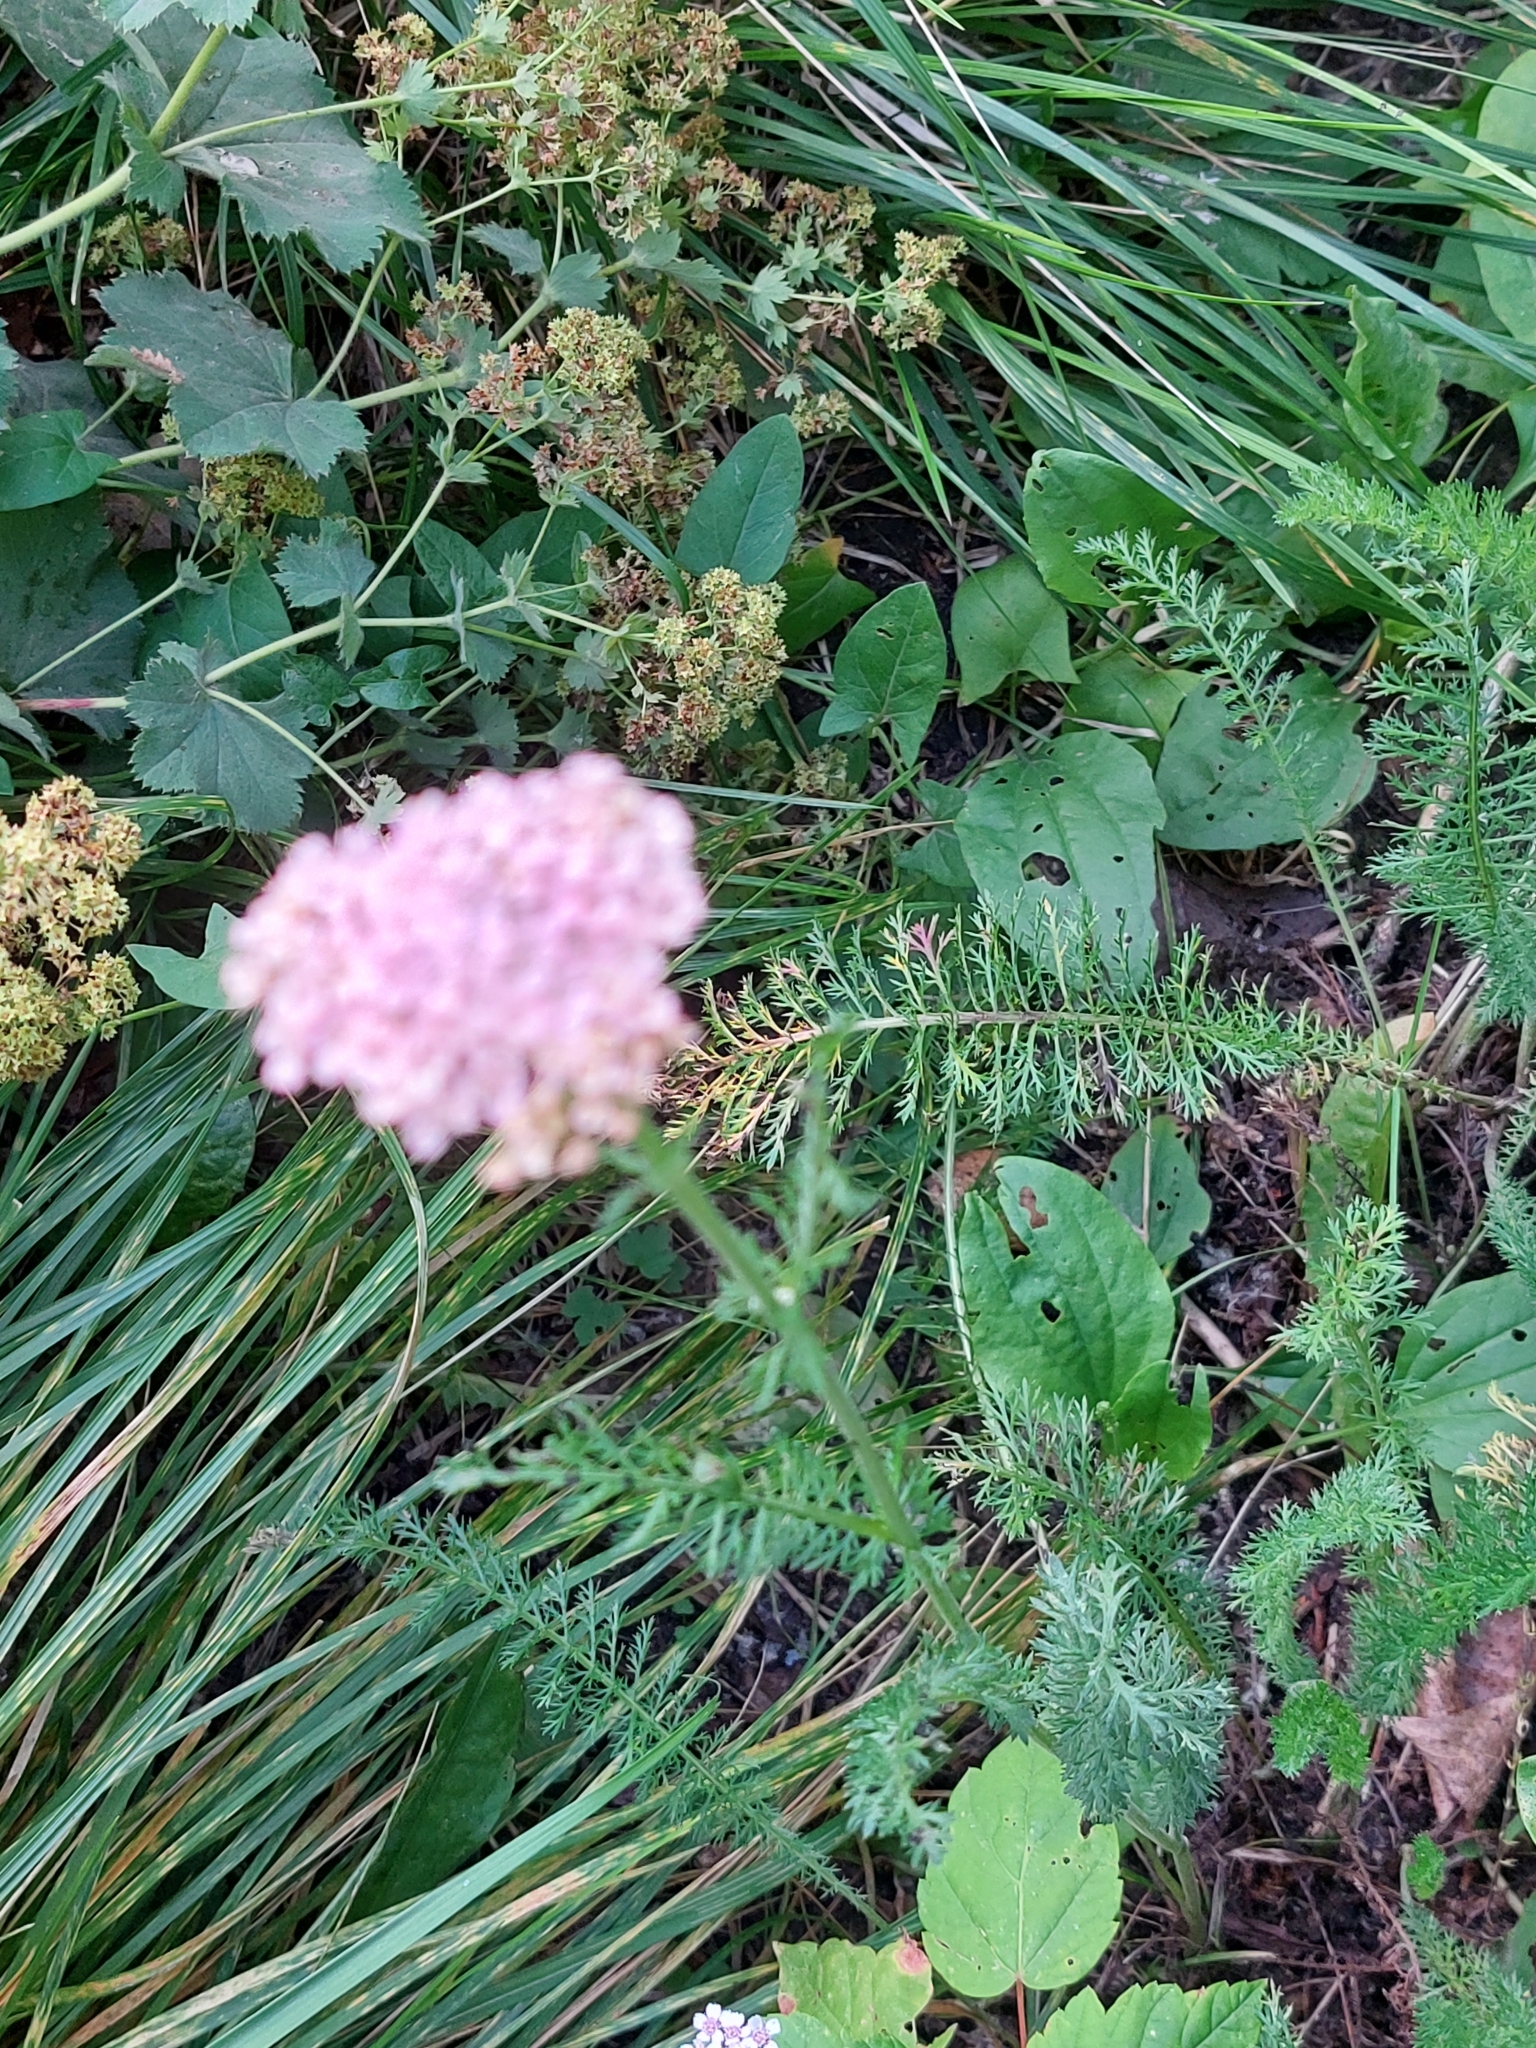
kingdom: Plantae
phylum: Tracheophyta
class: Magnoliopsida
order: Asterales
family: Asteraceae
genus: Achillea
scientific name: Achillea millefolium
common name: Yarrow
